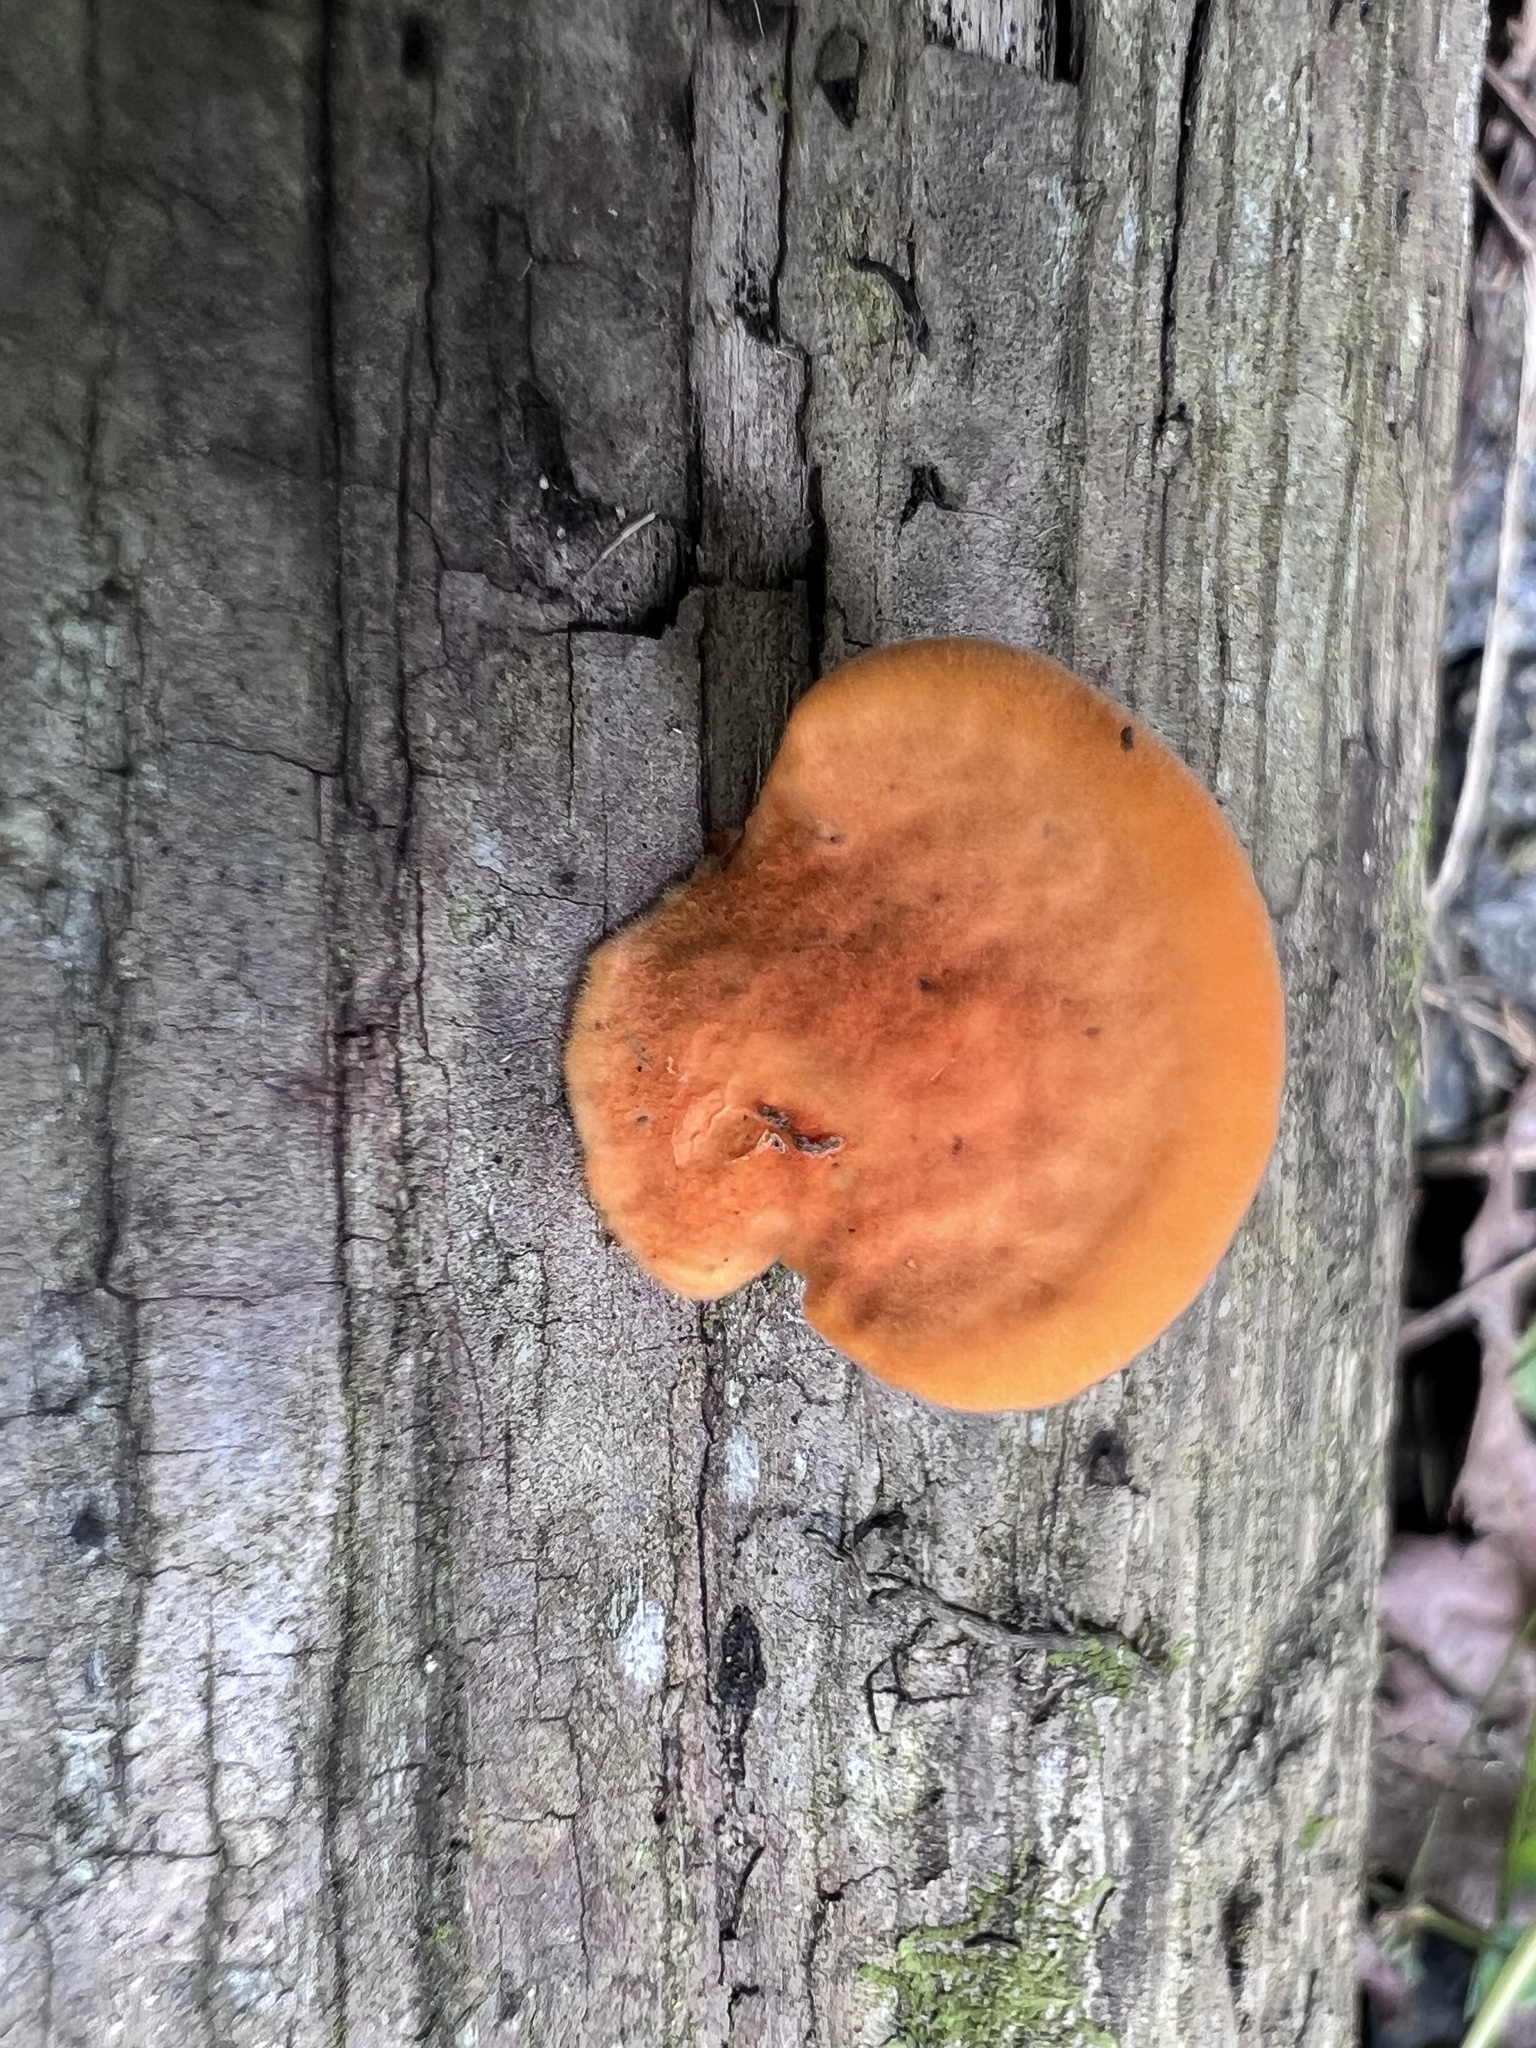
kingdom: Fungi
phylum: Basidiomycota
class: Agaricomycetes
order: Polyporales
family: Polyporaceae
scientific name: Polyporaceae
